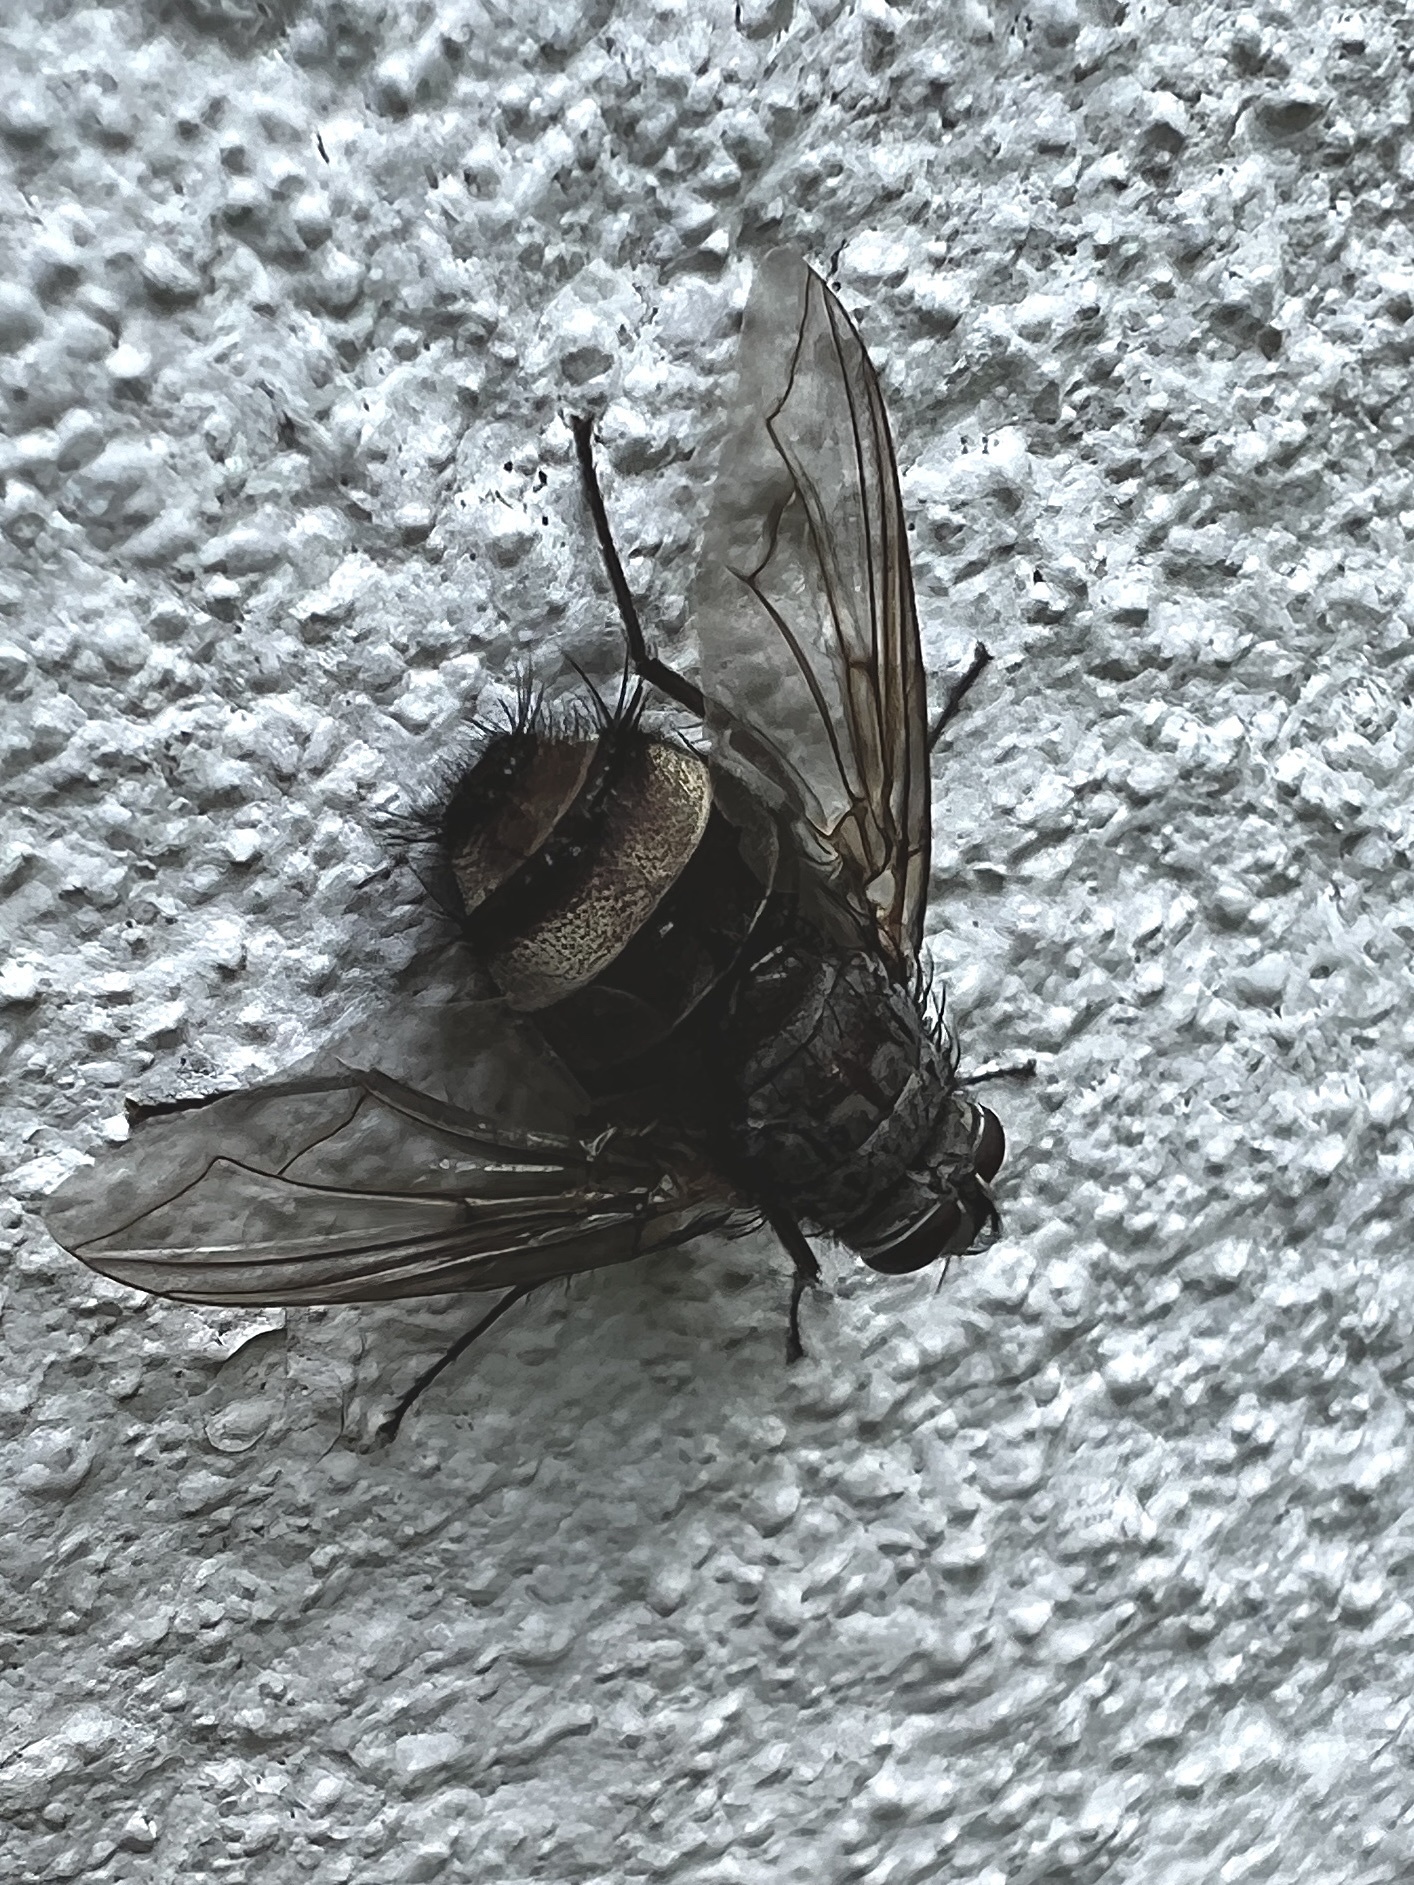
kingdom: Animalia
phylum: Arthropoda
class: Insecta
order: Diptera
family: Tachinidae
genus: Billaea
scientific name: Billaea rutilans
